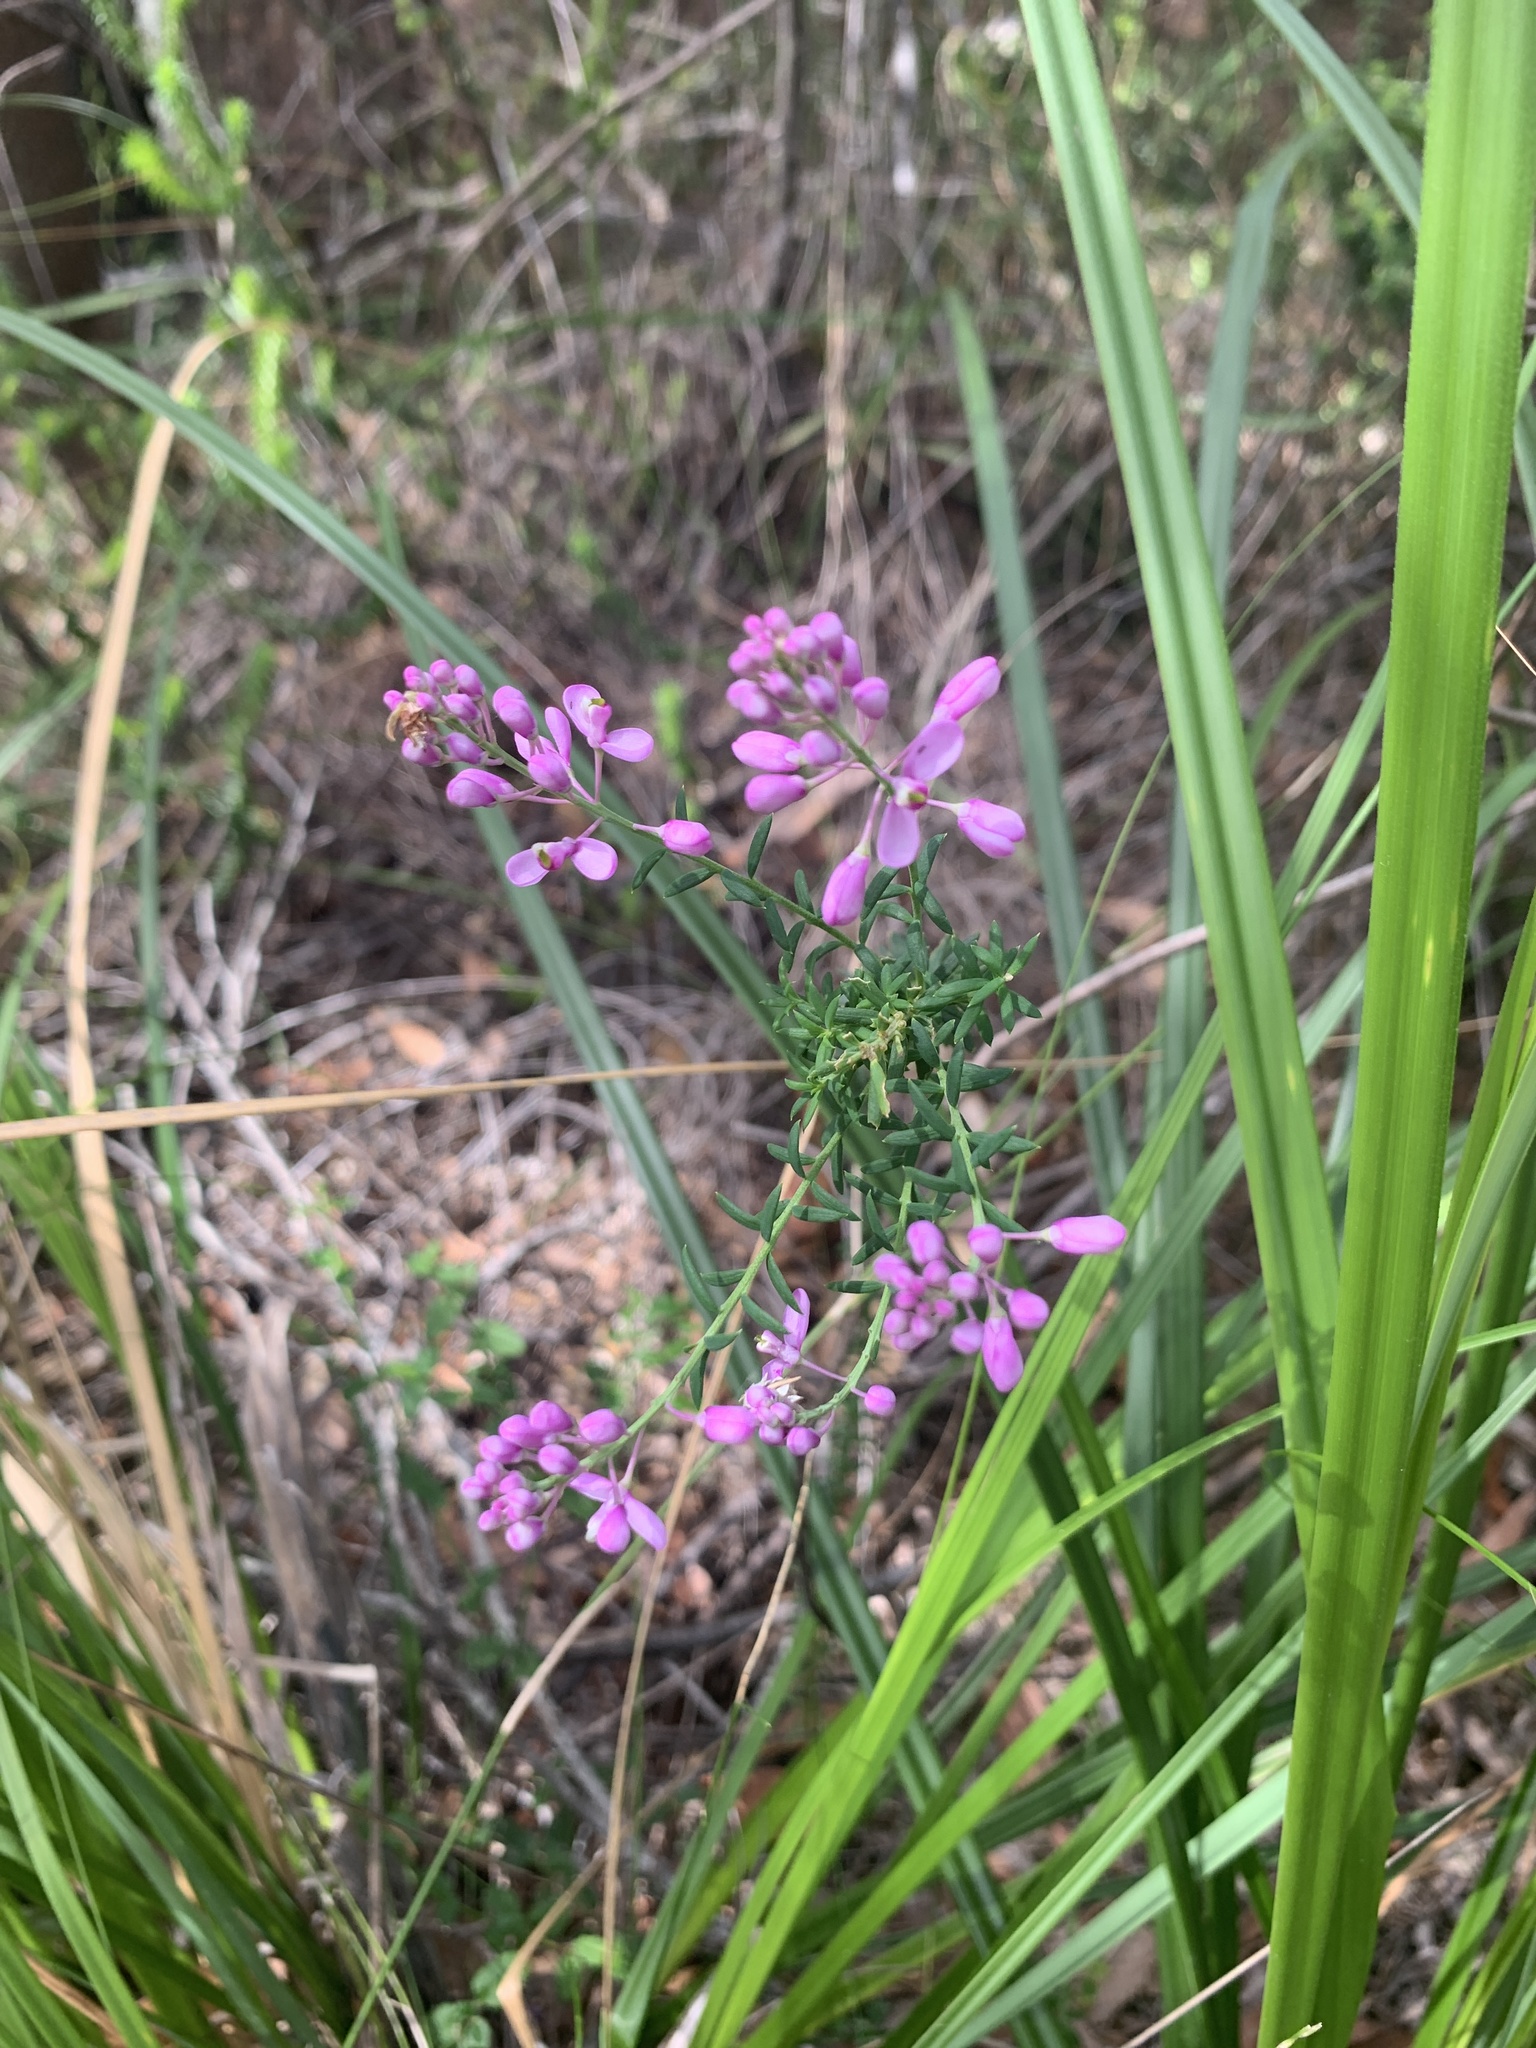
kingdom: Plantae
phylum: Tracheophyta
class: Magnoliopsida
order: Fabales
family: Polygalaceae
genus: Comesperma
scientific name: Comesperma ericinum
